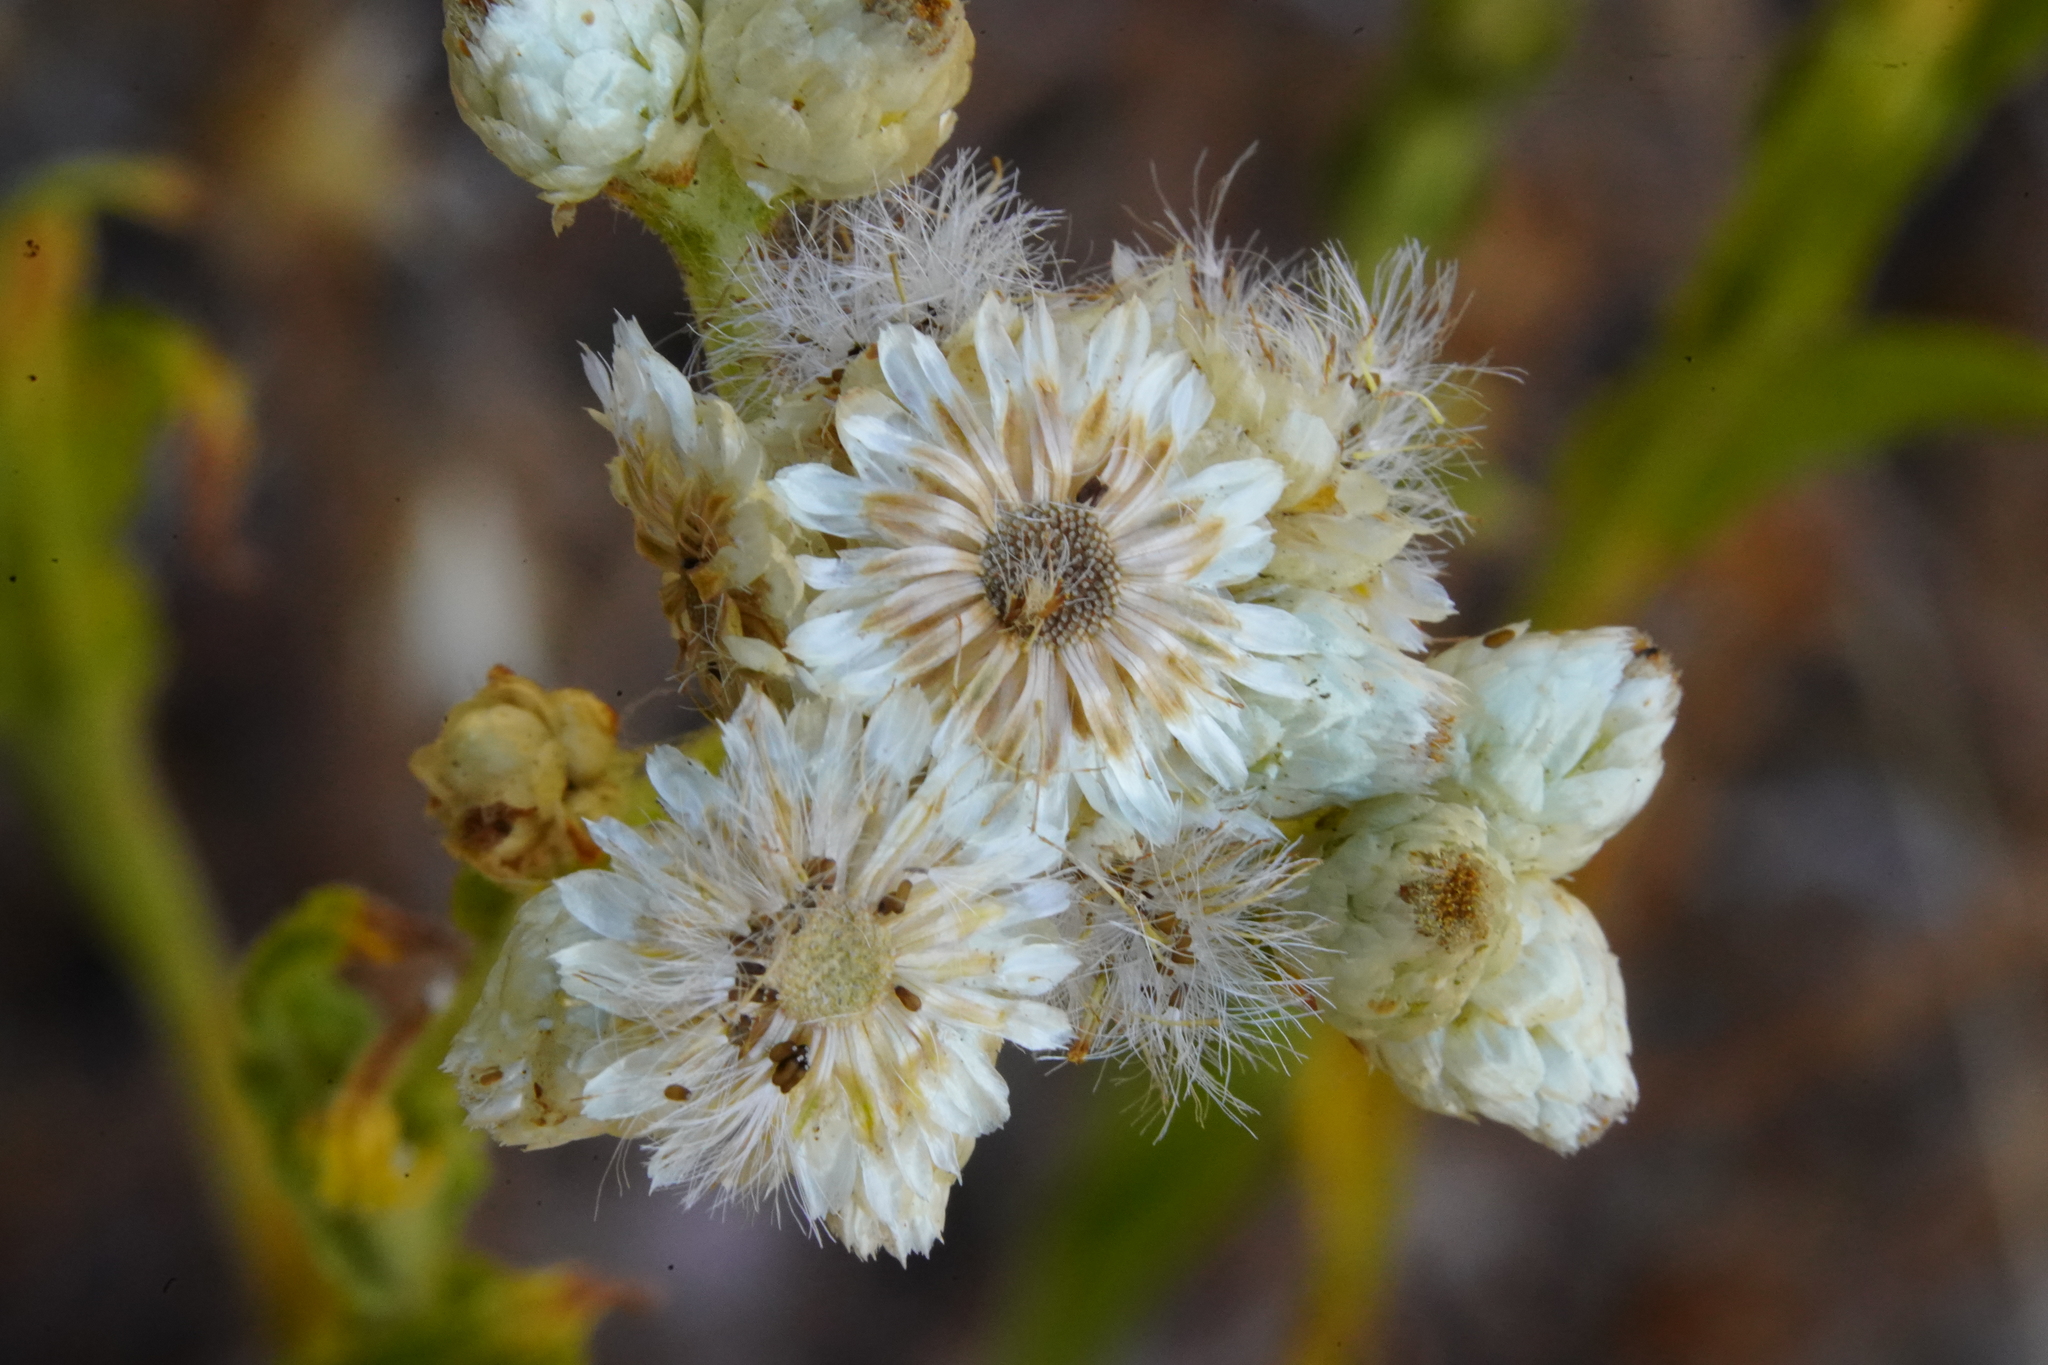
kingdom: Plantae
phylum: Tracheophyta
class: Magnoliopsida
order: Asterales
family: Asteraceae
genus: Pseudognaphalium
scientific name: Pseudognaphalium californicum
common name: California rabbit-tobacco
